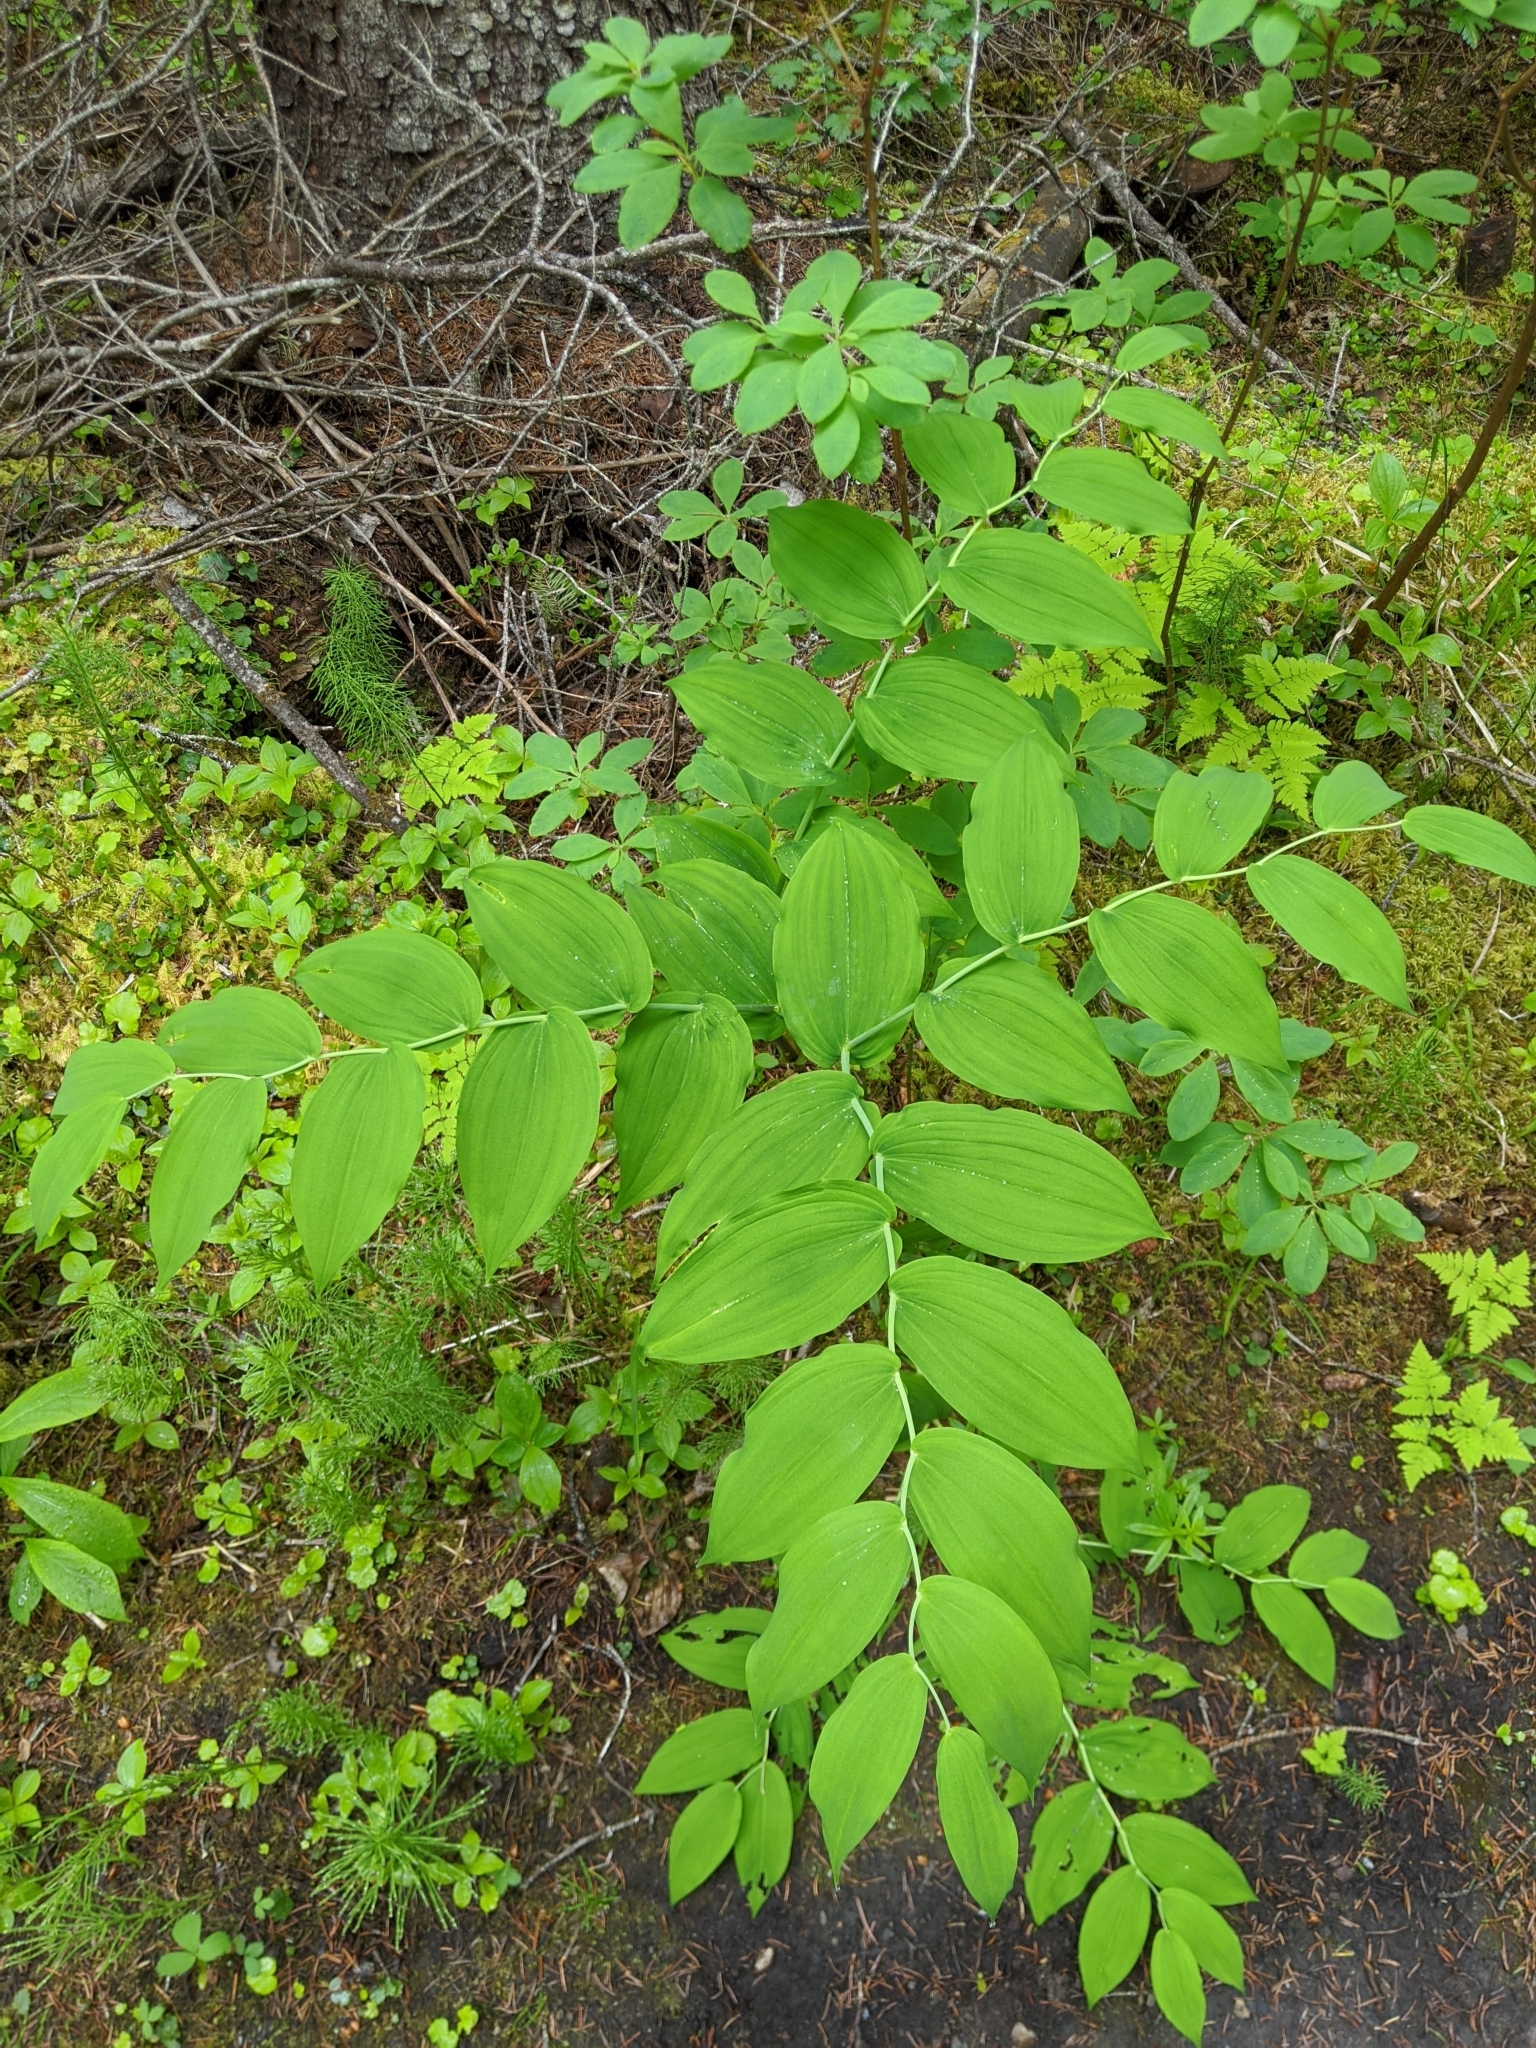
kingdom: Plantae
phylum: Tracheophyta
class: Liliopsida
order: Liliales
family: Liliaceae
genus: Streptopus
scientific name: Streptopus amplexifolius
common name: Clasp twisted stalk
